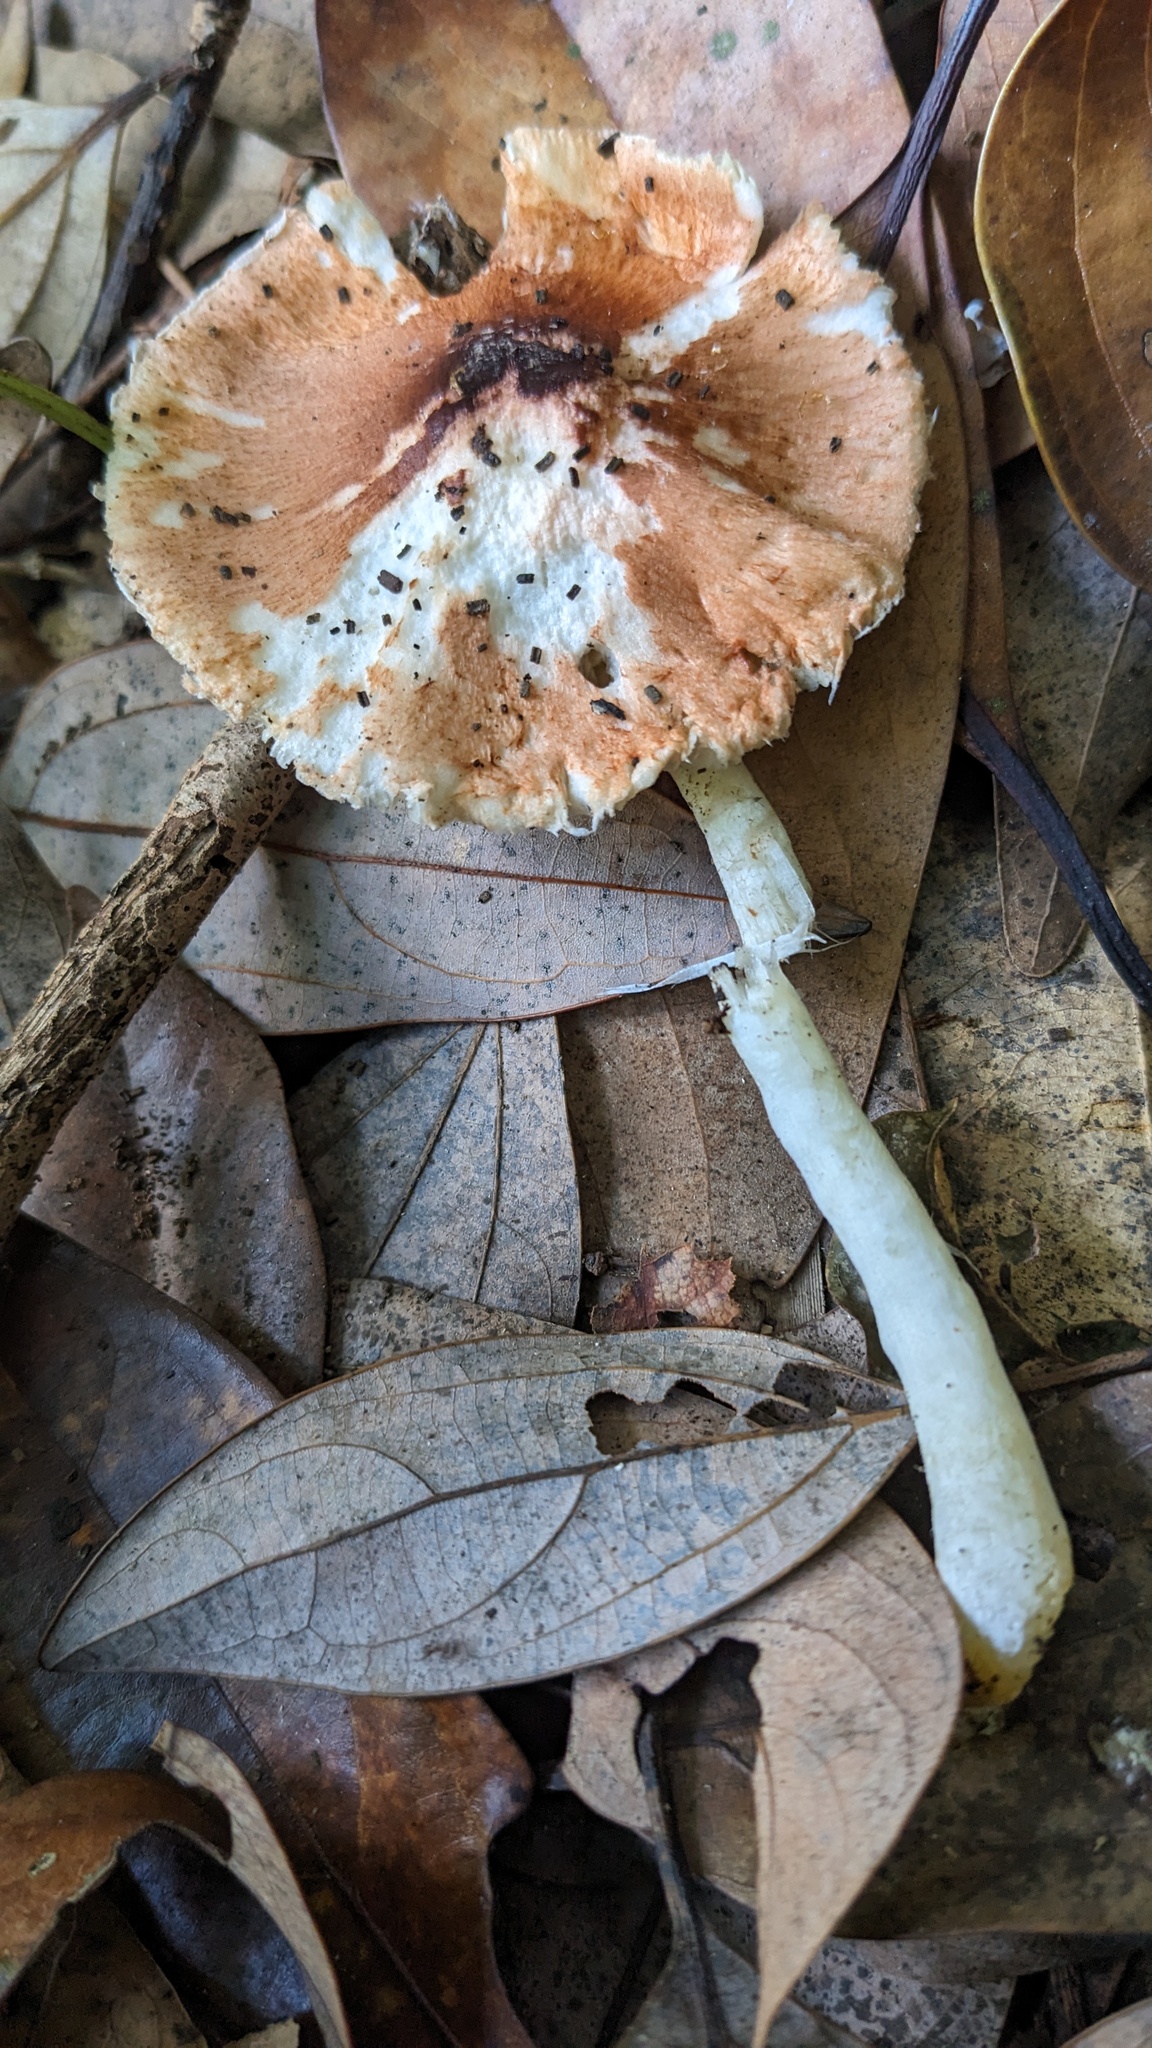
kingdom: Fungi
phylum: Basidiomycota
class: Agaricomycetes
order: Agaricales
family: Agaricaceae
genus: Leucoagaricus
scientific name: Leucoagaricus rubrotinctus
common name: Ruby dapperling
